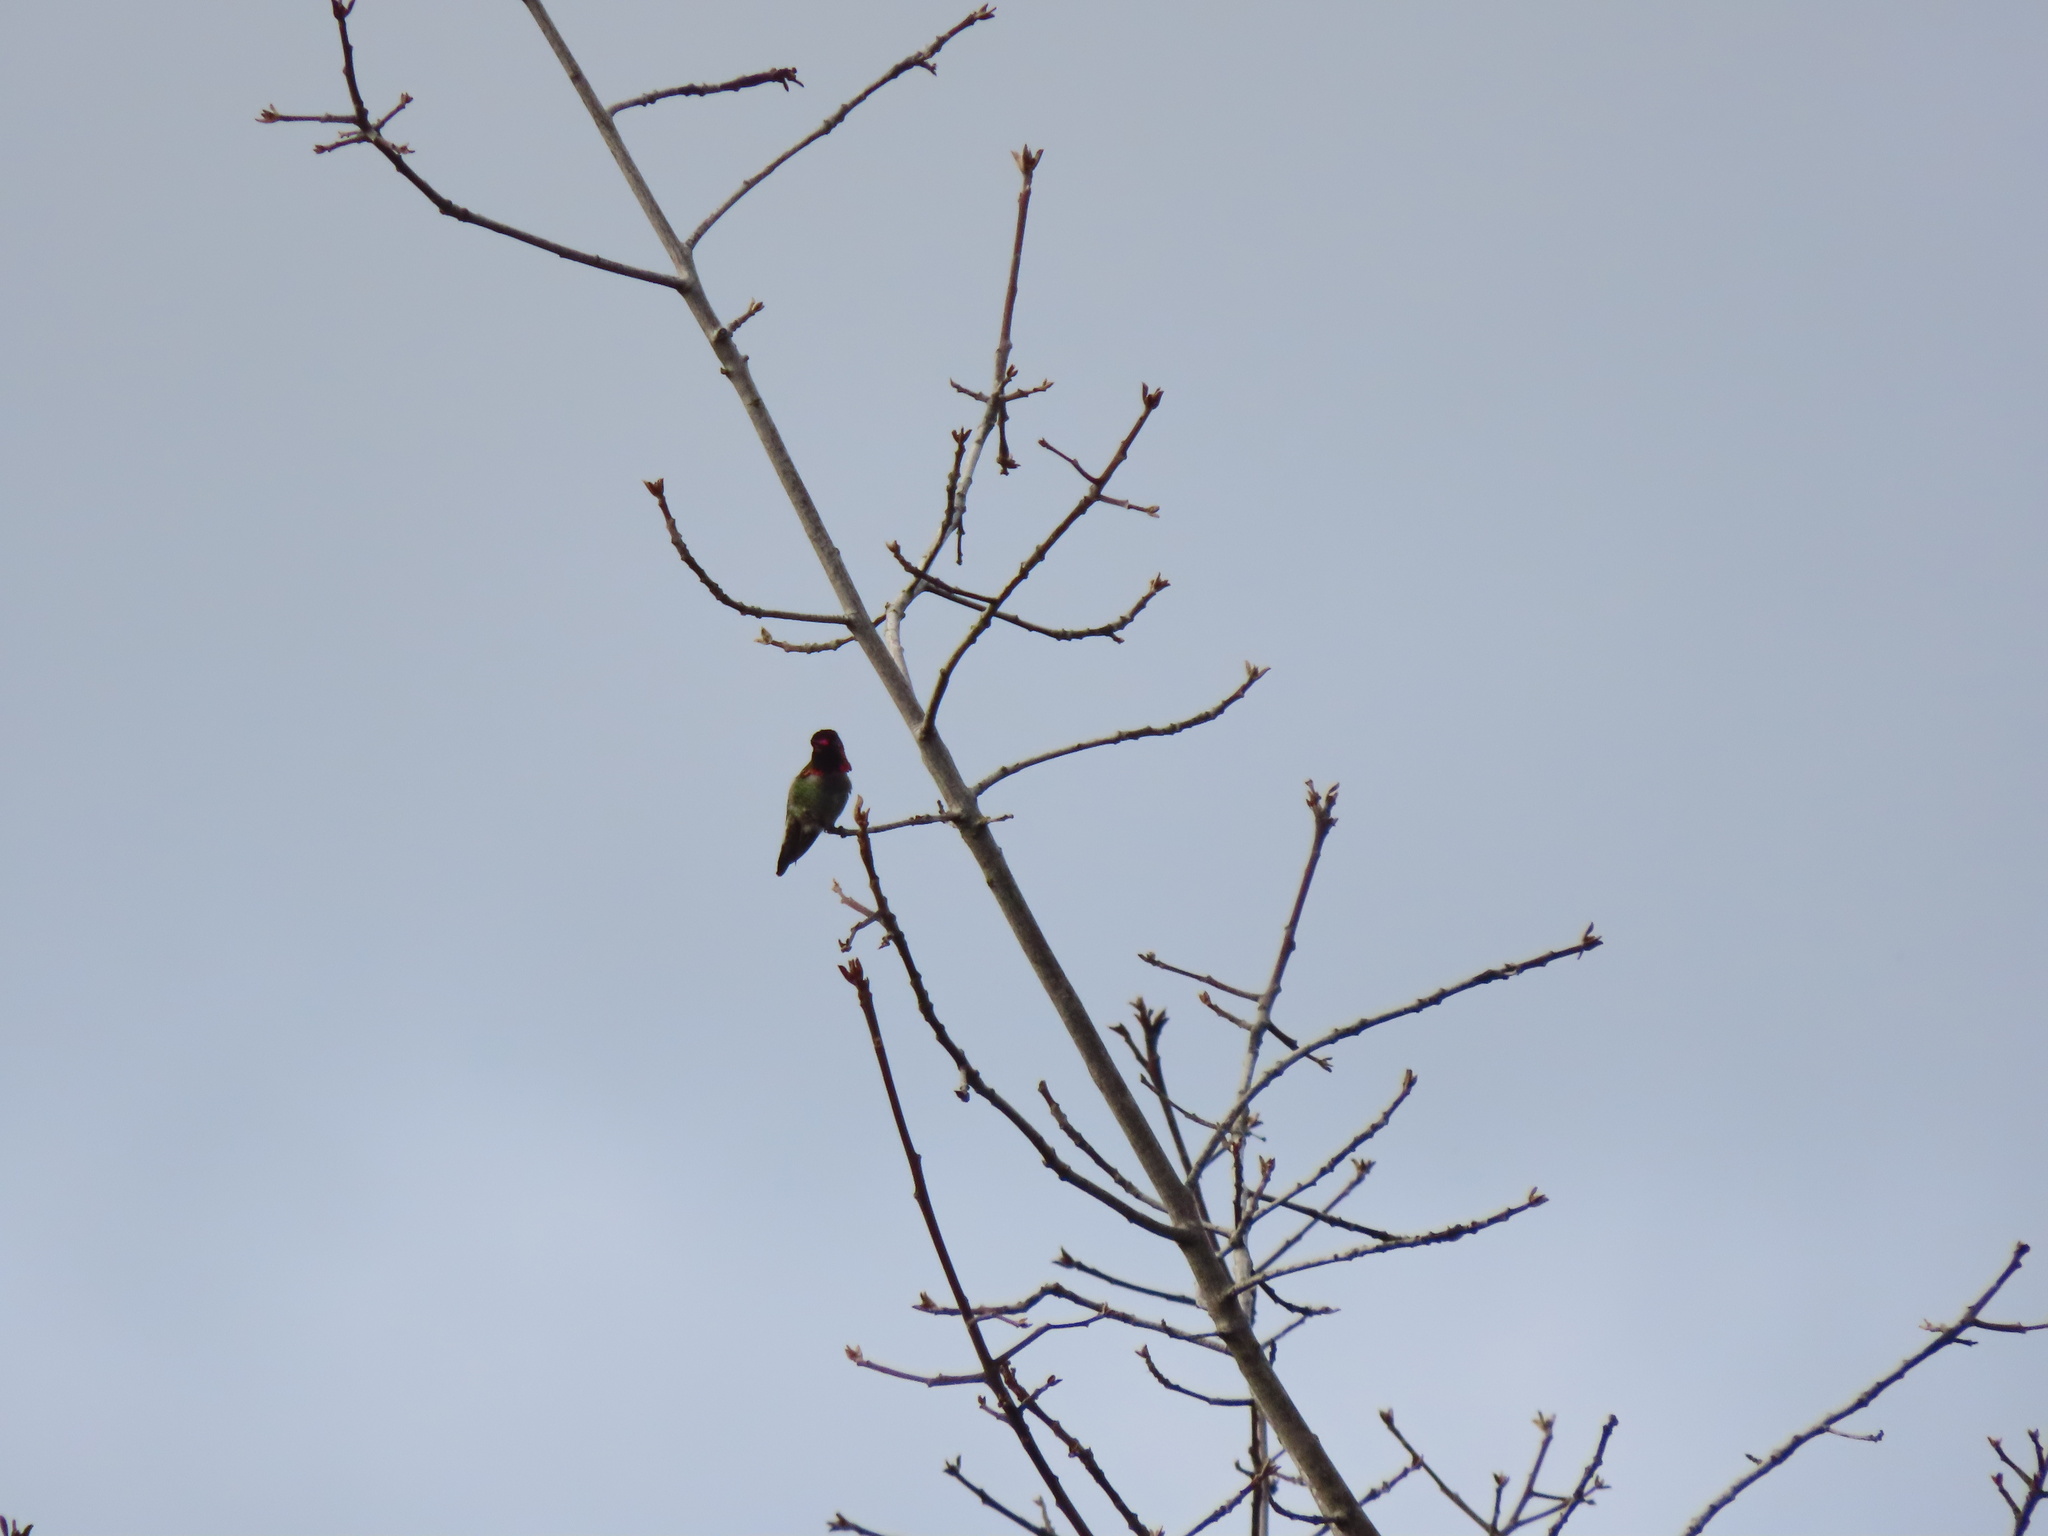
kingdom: Animalia
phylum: Chordata
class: Aves
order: Apodiformes
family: Trochilidae
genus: Calypte
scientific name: Calypte anna
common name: Anna's hummingbird
